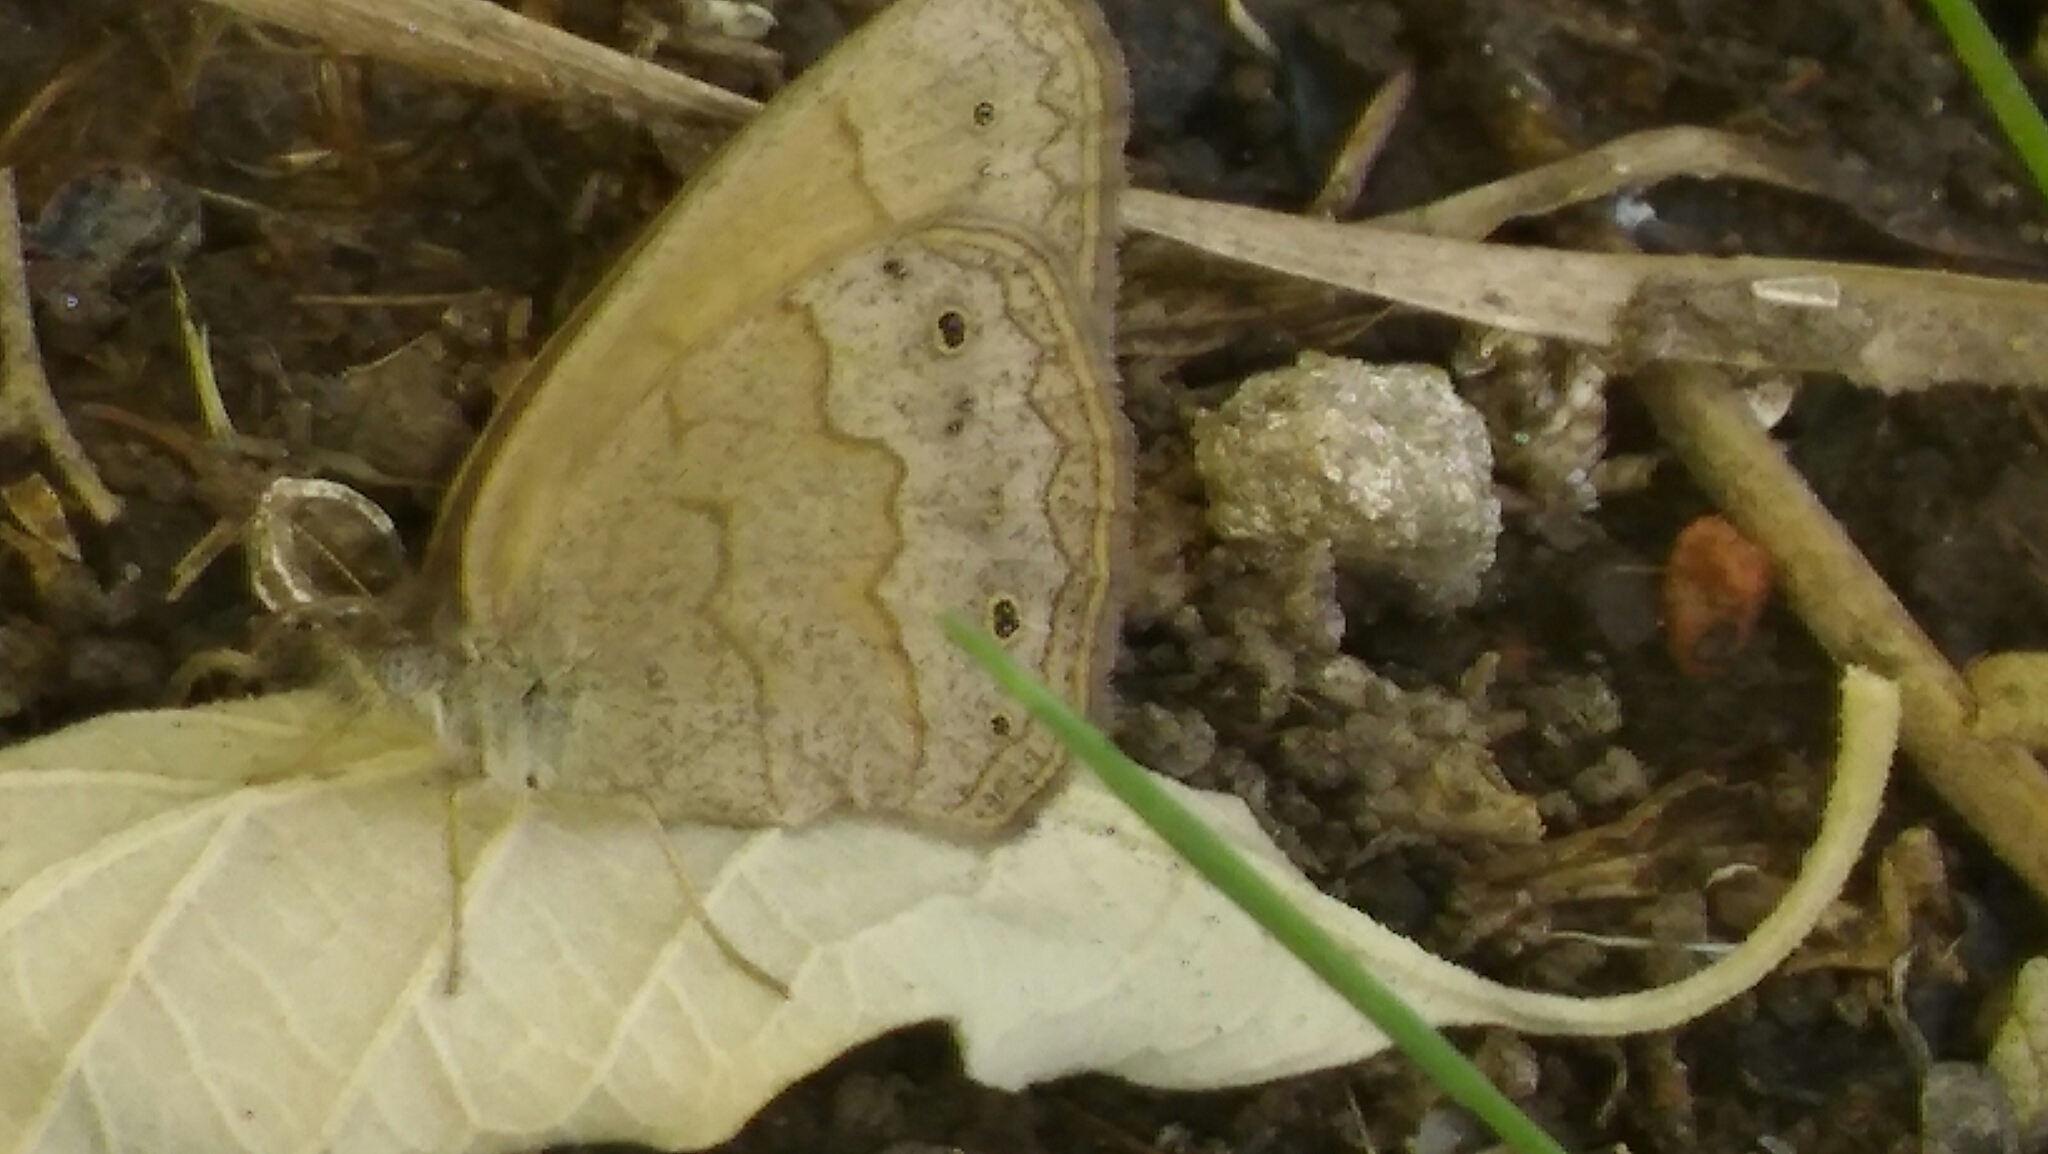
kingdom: Animalia
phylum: Arthropoda
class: Insecta
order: Lepidoptera
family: Nymphalidae
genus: Yphthimoides
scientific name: Yphthimoides celmis
